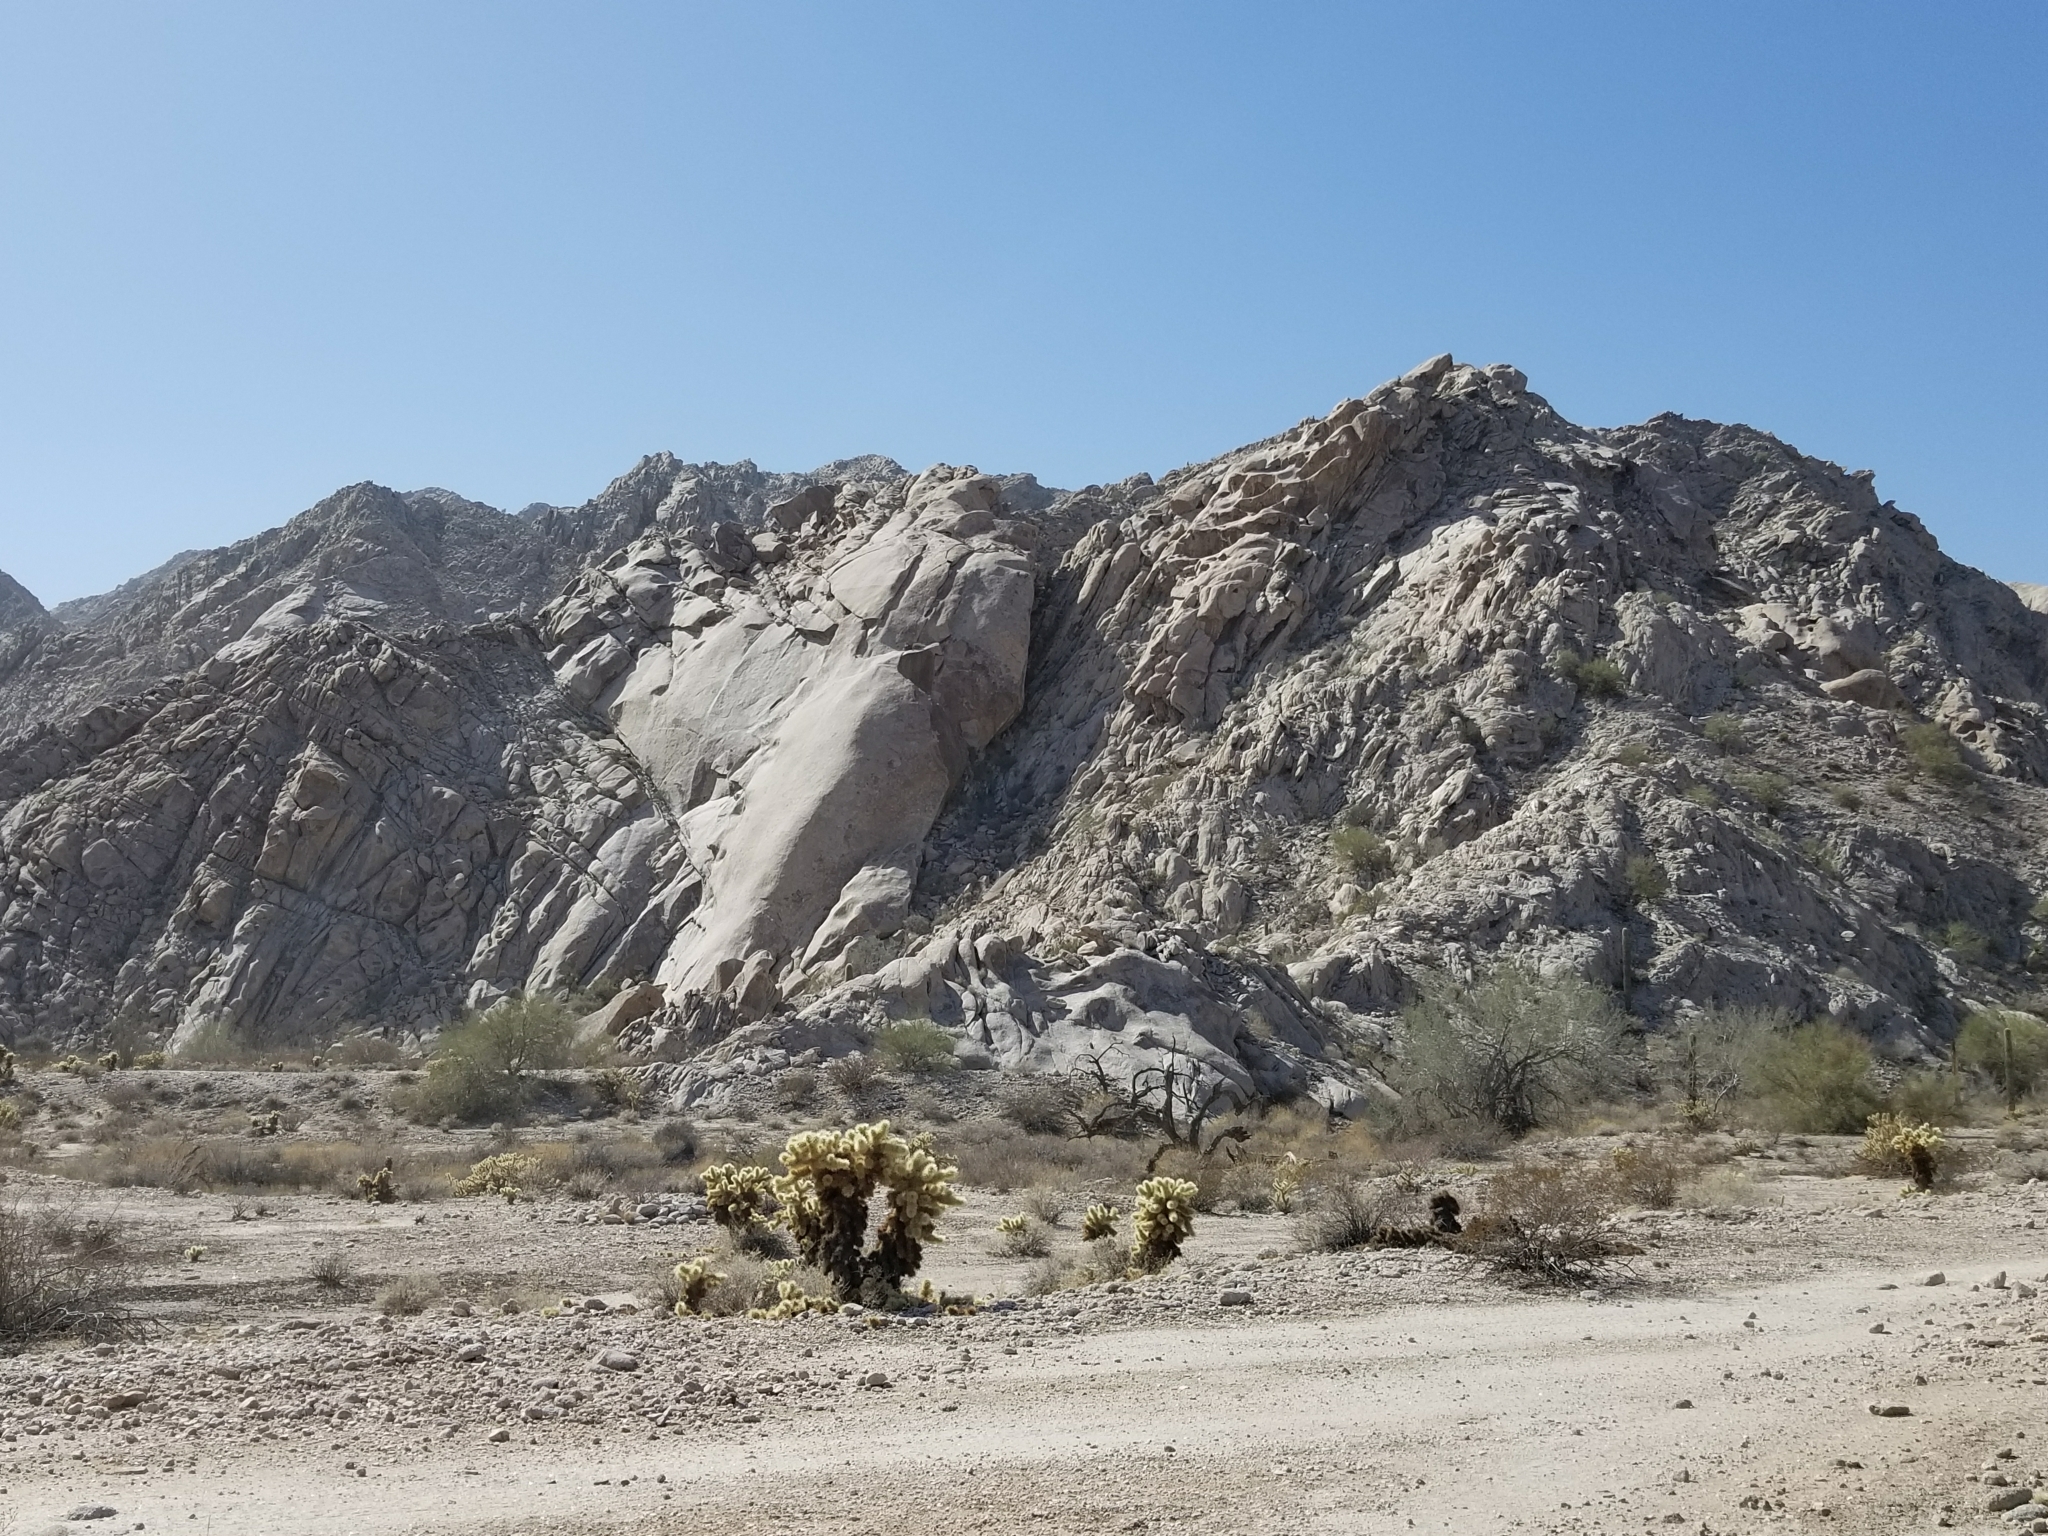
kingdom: Plantae
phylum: Tracheophyta
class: Magnoliopsida
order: Caryophyllales
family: Cactaceae
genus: Cylindropuntia
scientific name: Cylindropuntia fosbergii
